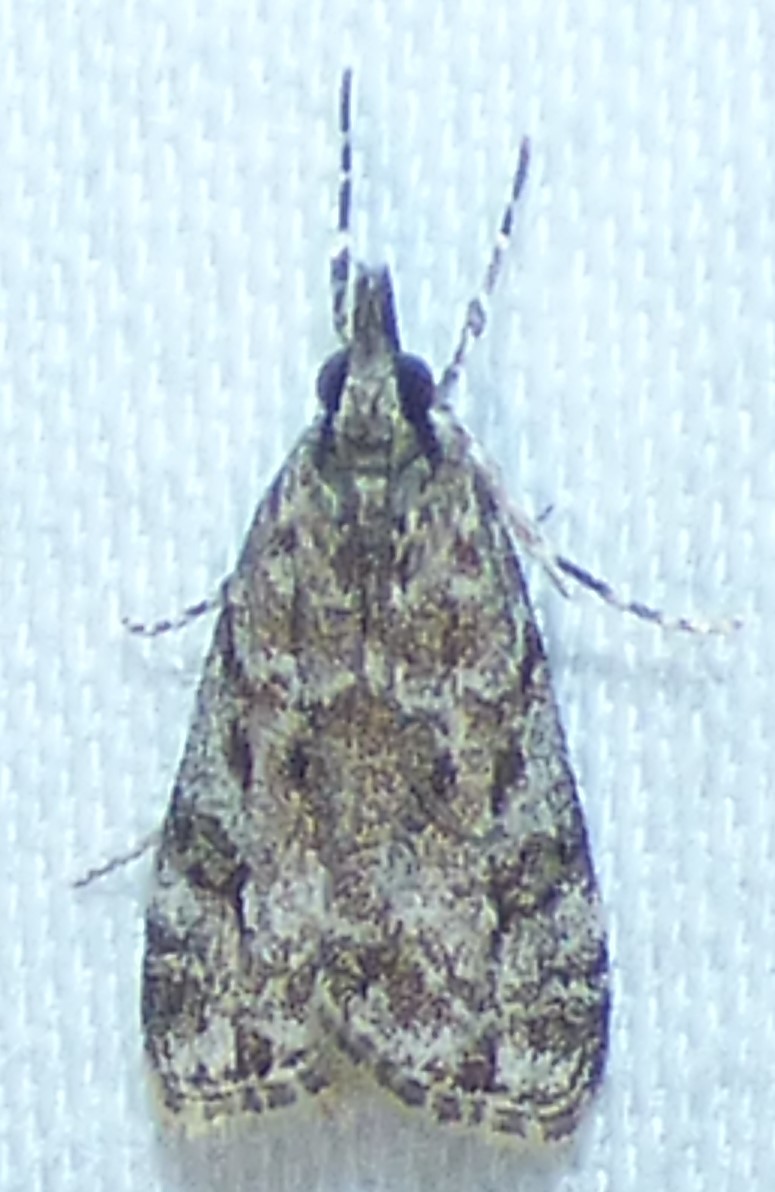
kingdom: Animalia
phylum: Arthropoda
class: Insecta
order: Lepidoptera
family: Crambidae
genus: Eudonia
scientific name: Eudonia heterosalis
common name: Mcdunnough's eudonia
